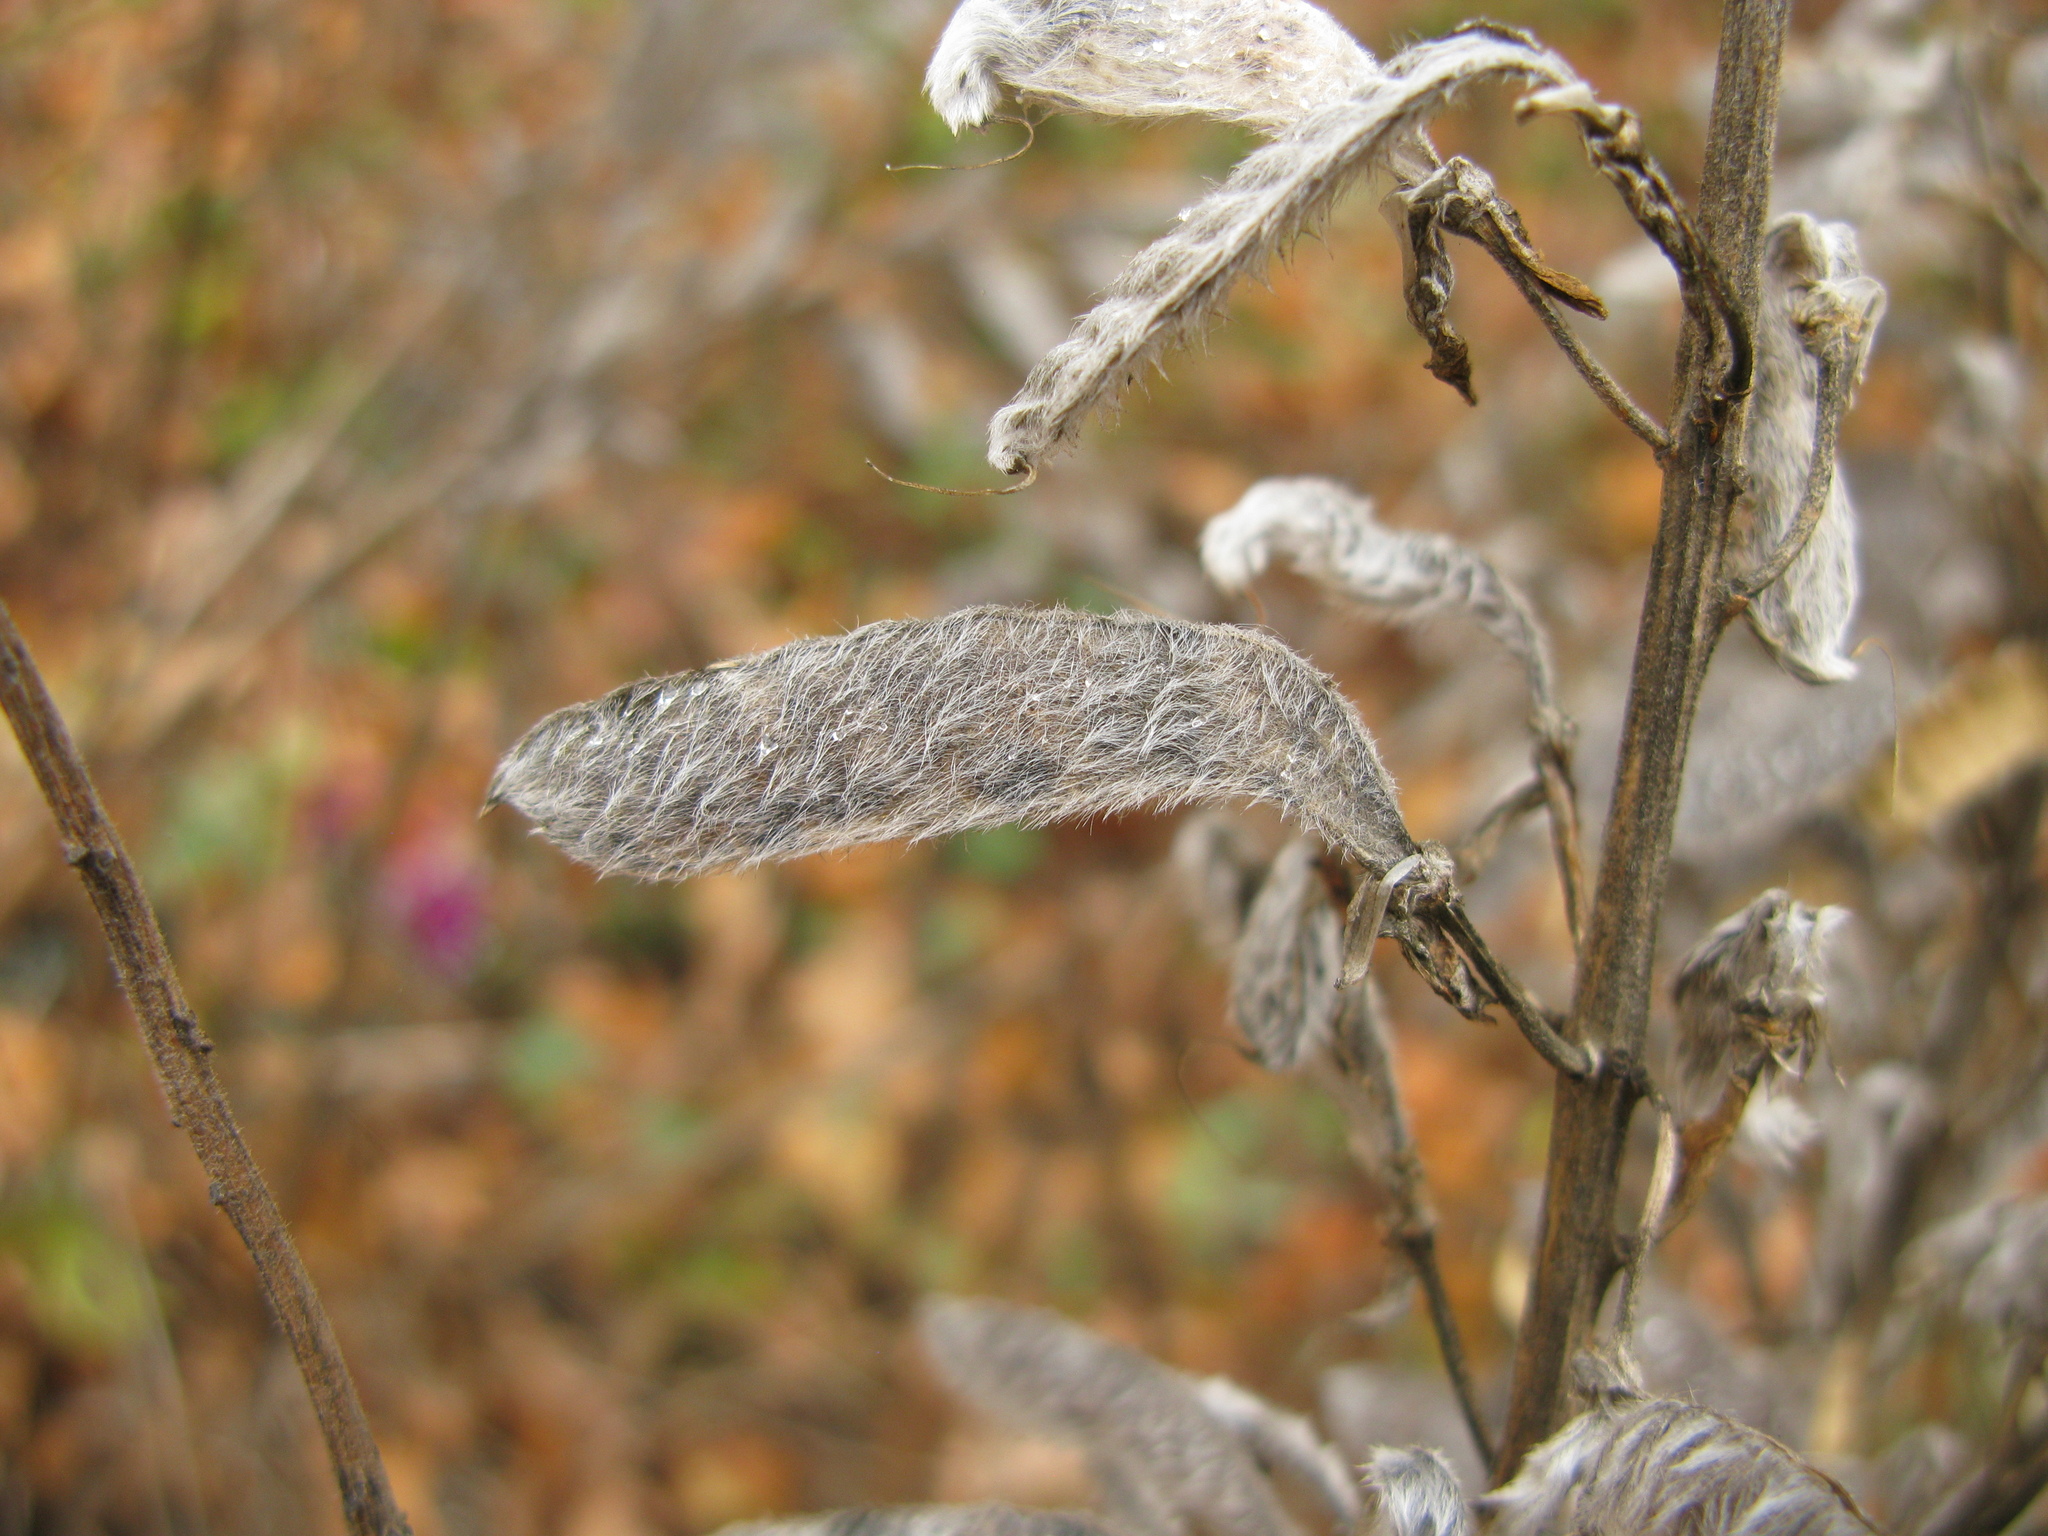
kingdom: Plantae
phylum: Tracheophyta
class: Magnoliopsida
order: Fabales
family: Fabaceae
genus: Lupinus
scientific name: Lupinus polyphyllus
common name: Garden lupin
